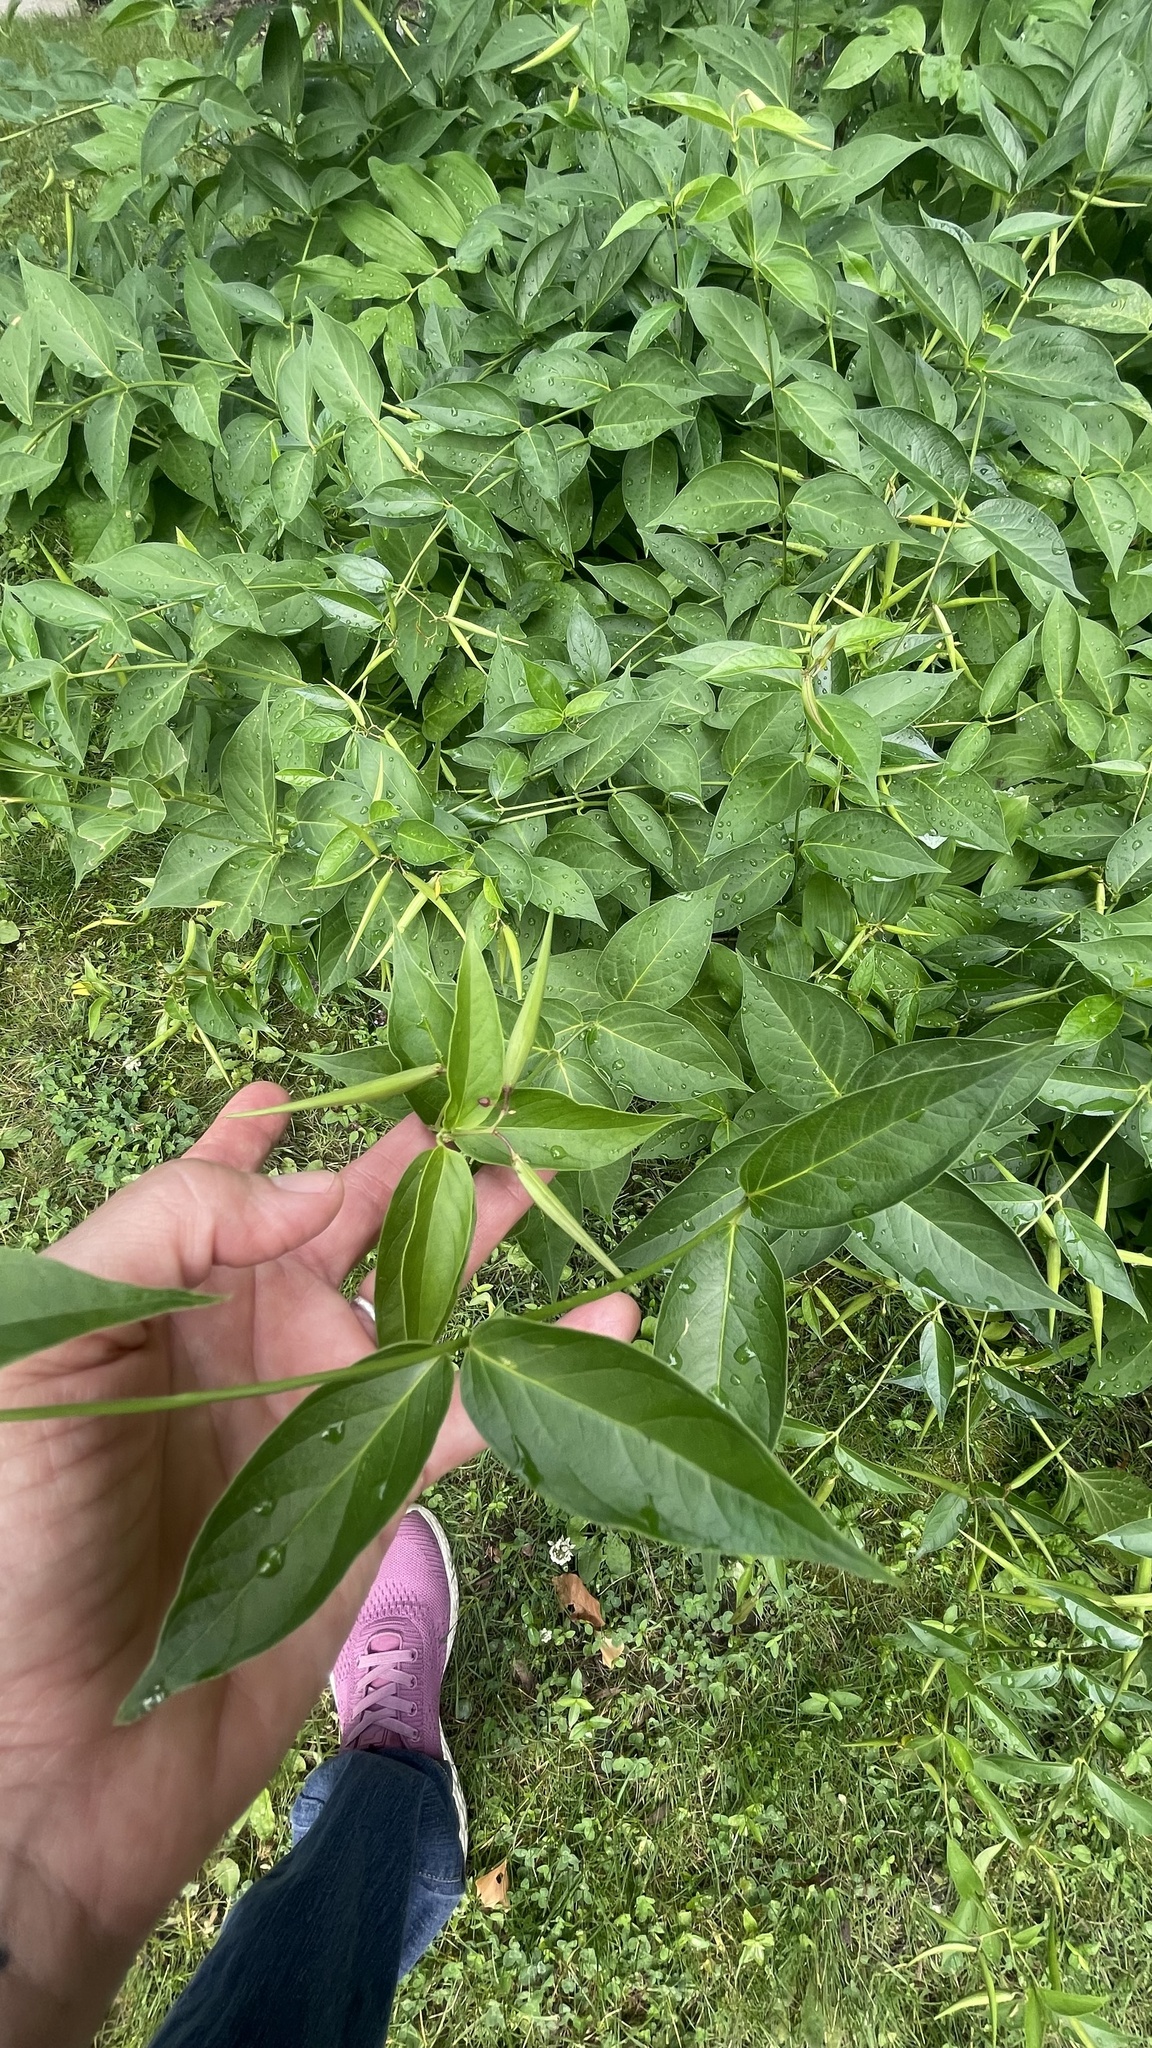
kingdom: Plantae
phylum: Tracheophyta
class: Magnoliopsida
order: Gentianales
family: Apocynaceae
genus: Vincetoxicum
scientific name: Vincetoxicum rossicum
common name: Dog-strangling vine
